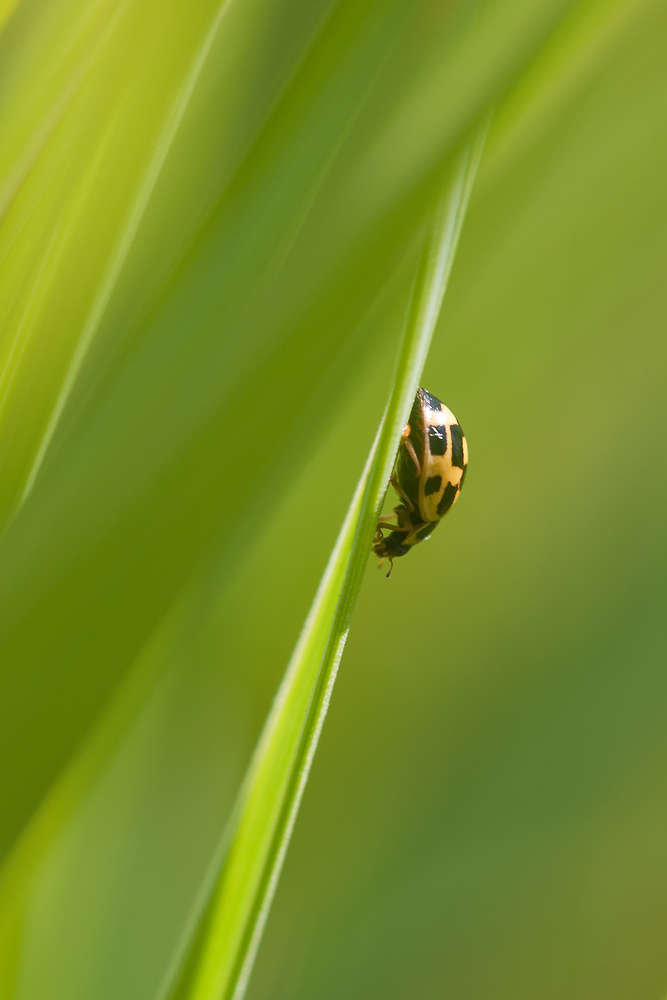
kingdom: Animalia
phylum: Arthropoda
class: Insecta
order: Coleoptera
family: Coccinellidae
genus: Propylaea
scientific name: Propylaea quatuordecimpunctata
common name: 14-spotted ladybird beetle
